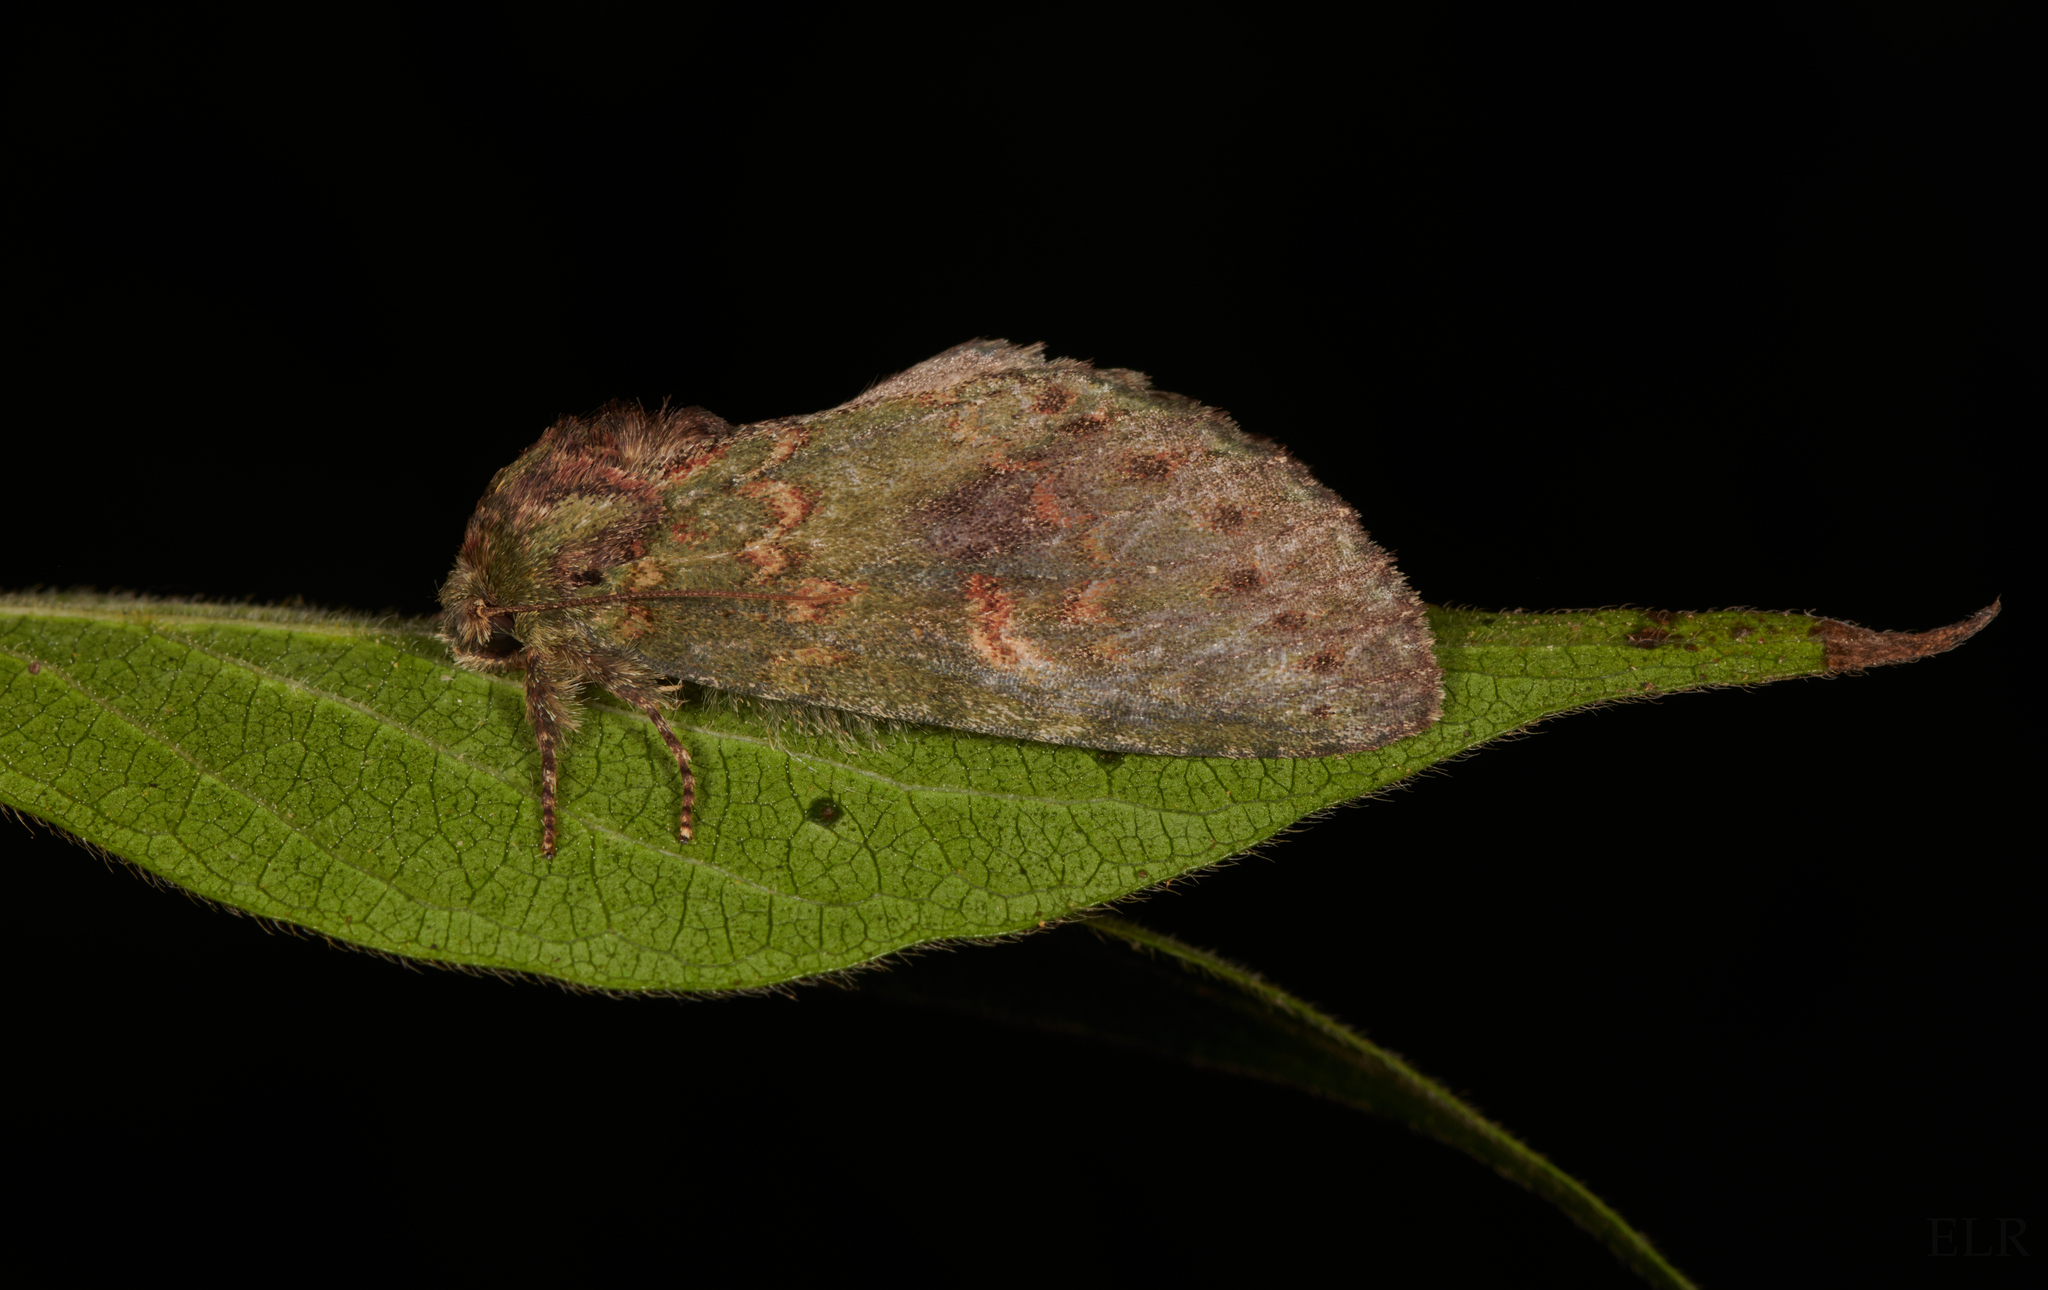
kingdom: Animalia
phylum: Arthropoda
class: Insecta
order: Lepidoptera
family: Notodontidae
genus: Disphragis
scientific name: Disphragis Cecrita biundata
